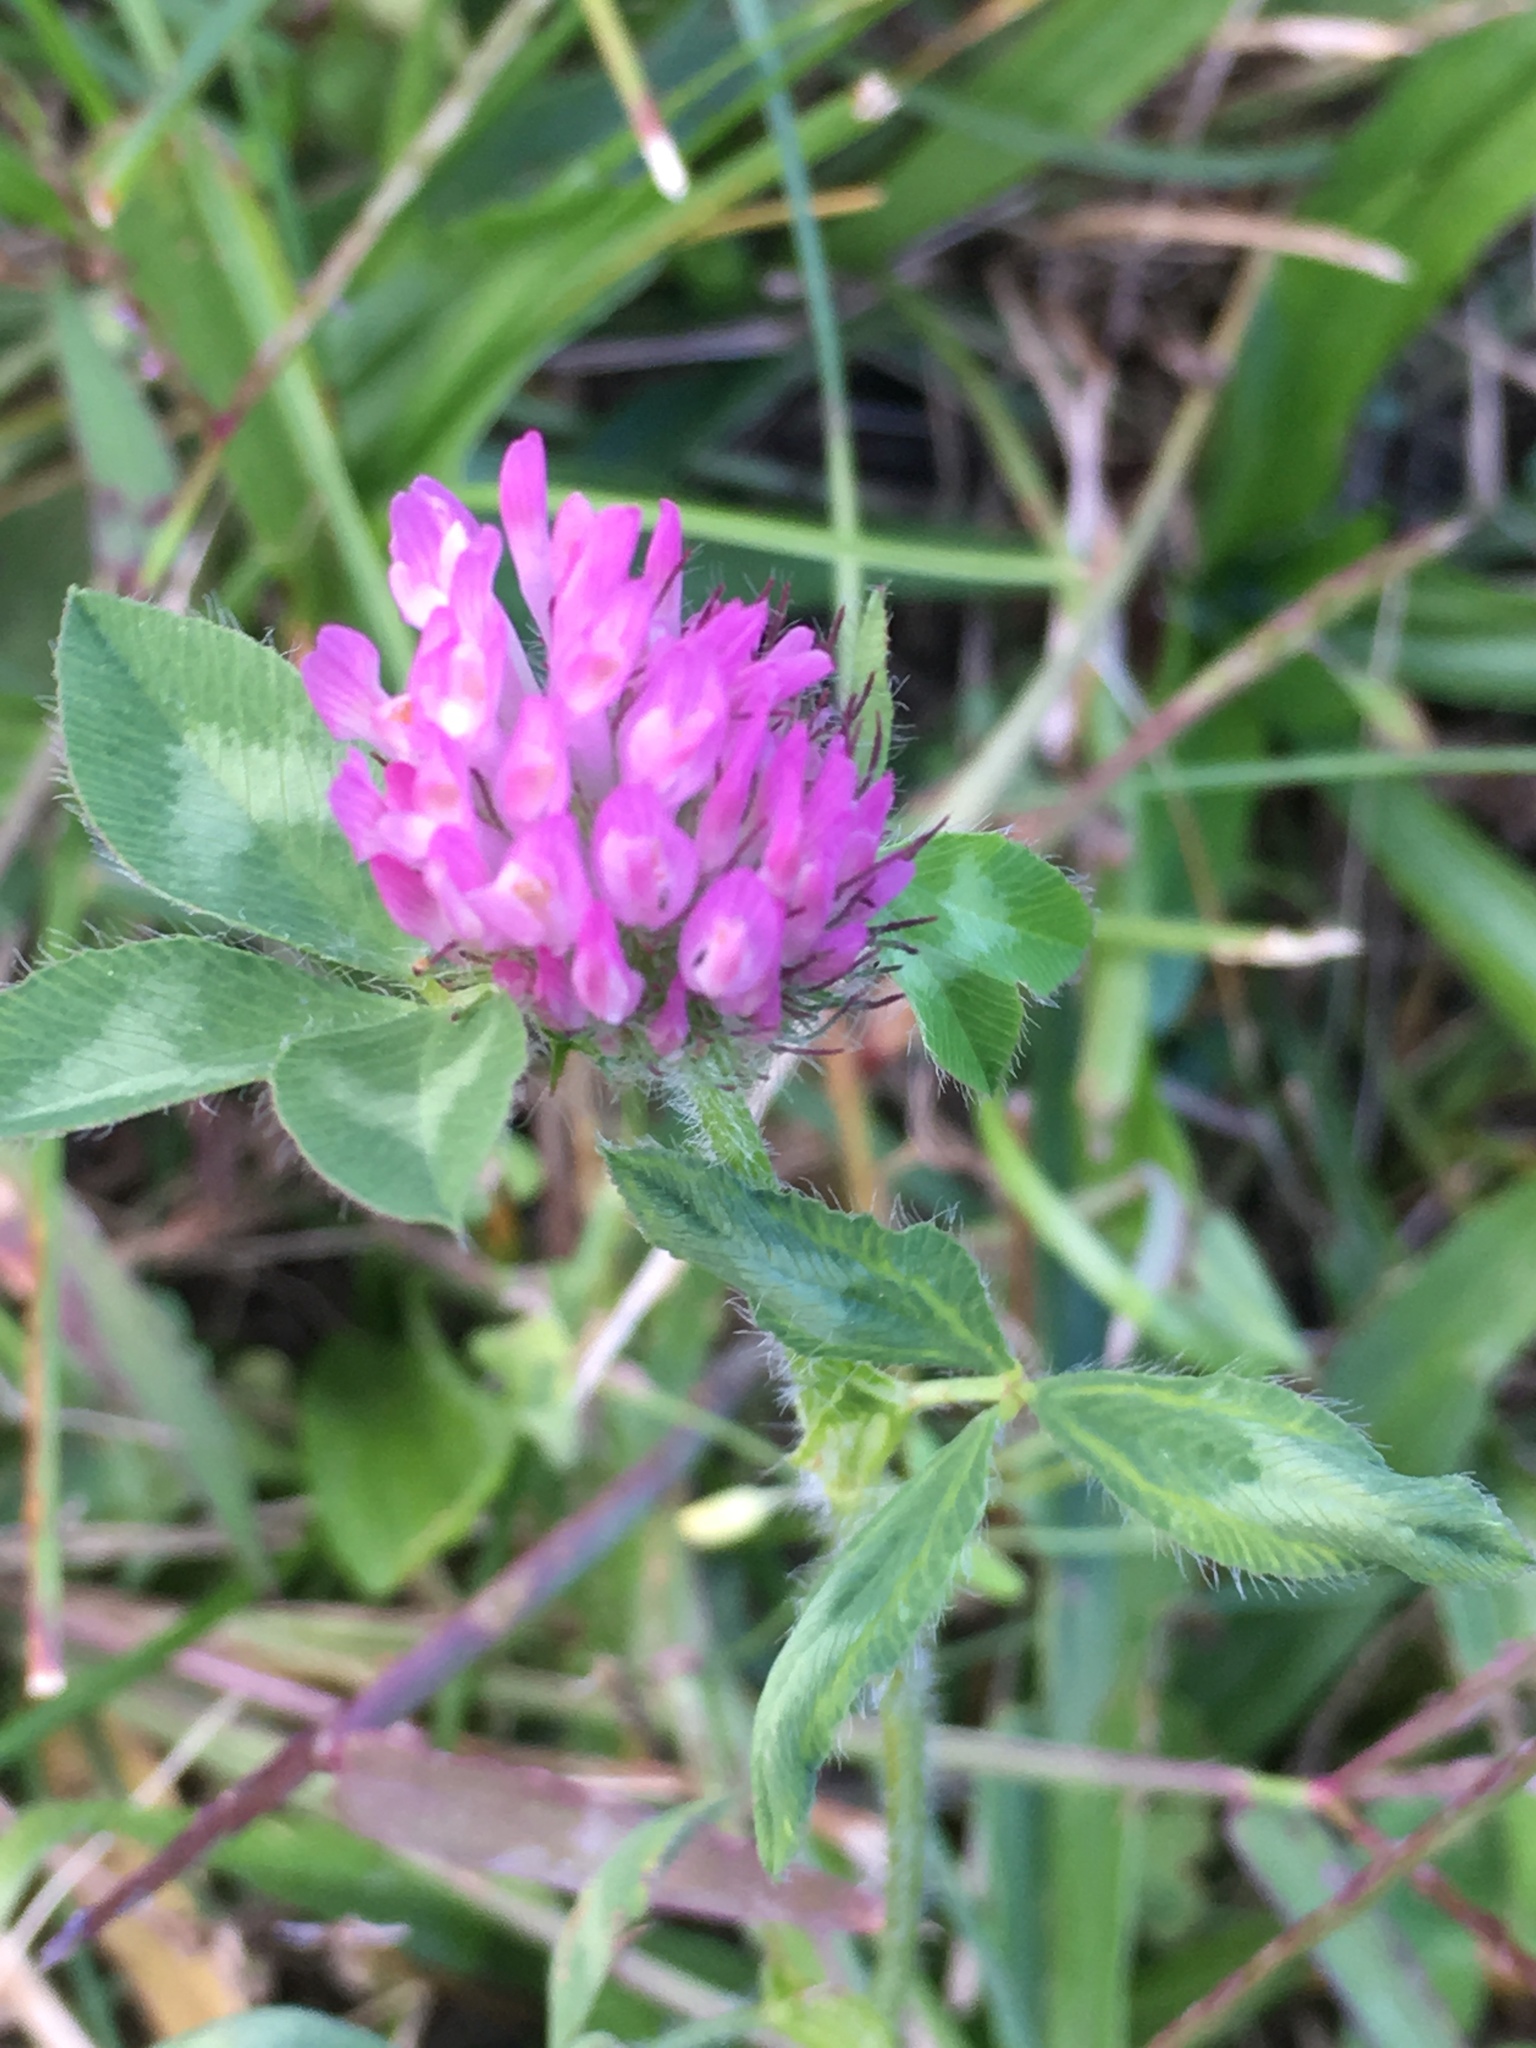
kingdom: Plantae
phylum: Tracheophyta
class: Magnoliopsida
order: Fabales
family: Fabaceae
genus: Trifolium
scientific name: Trifolium pratense
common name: Red clover
